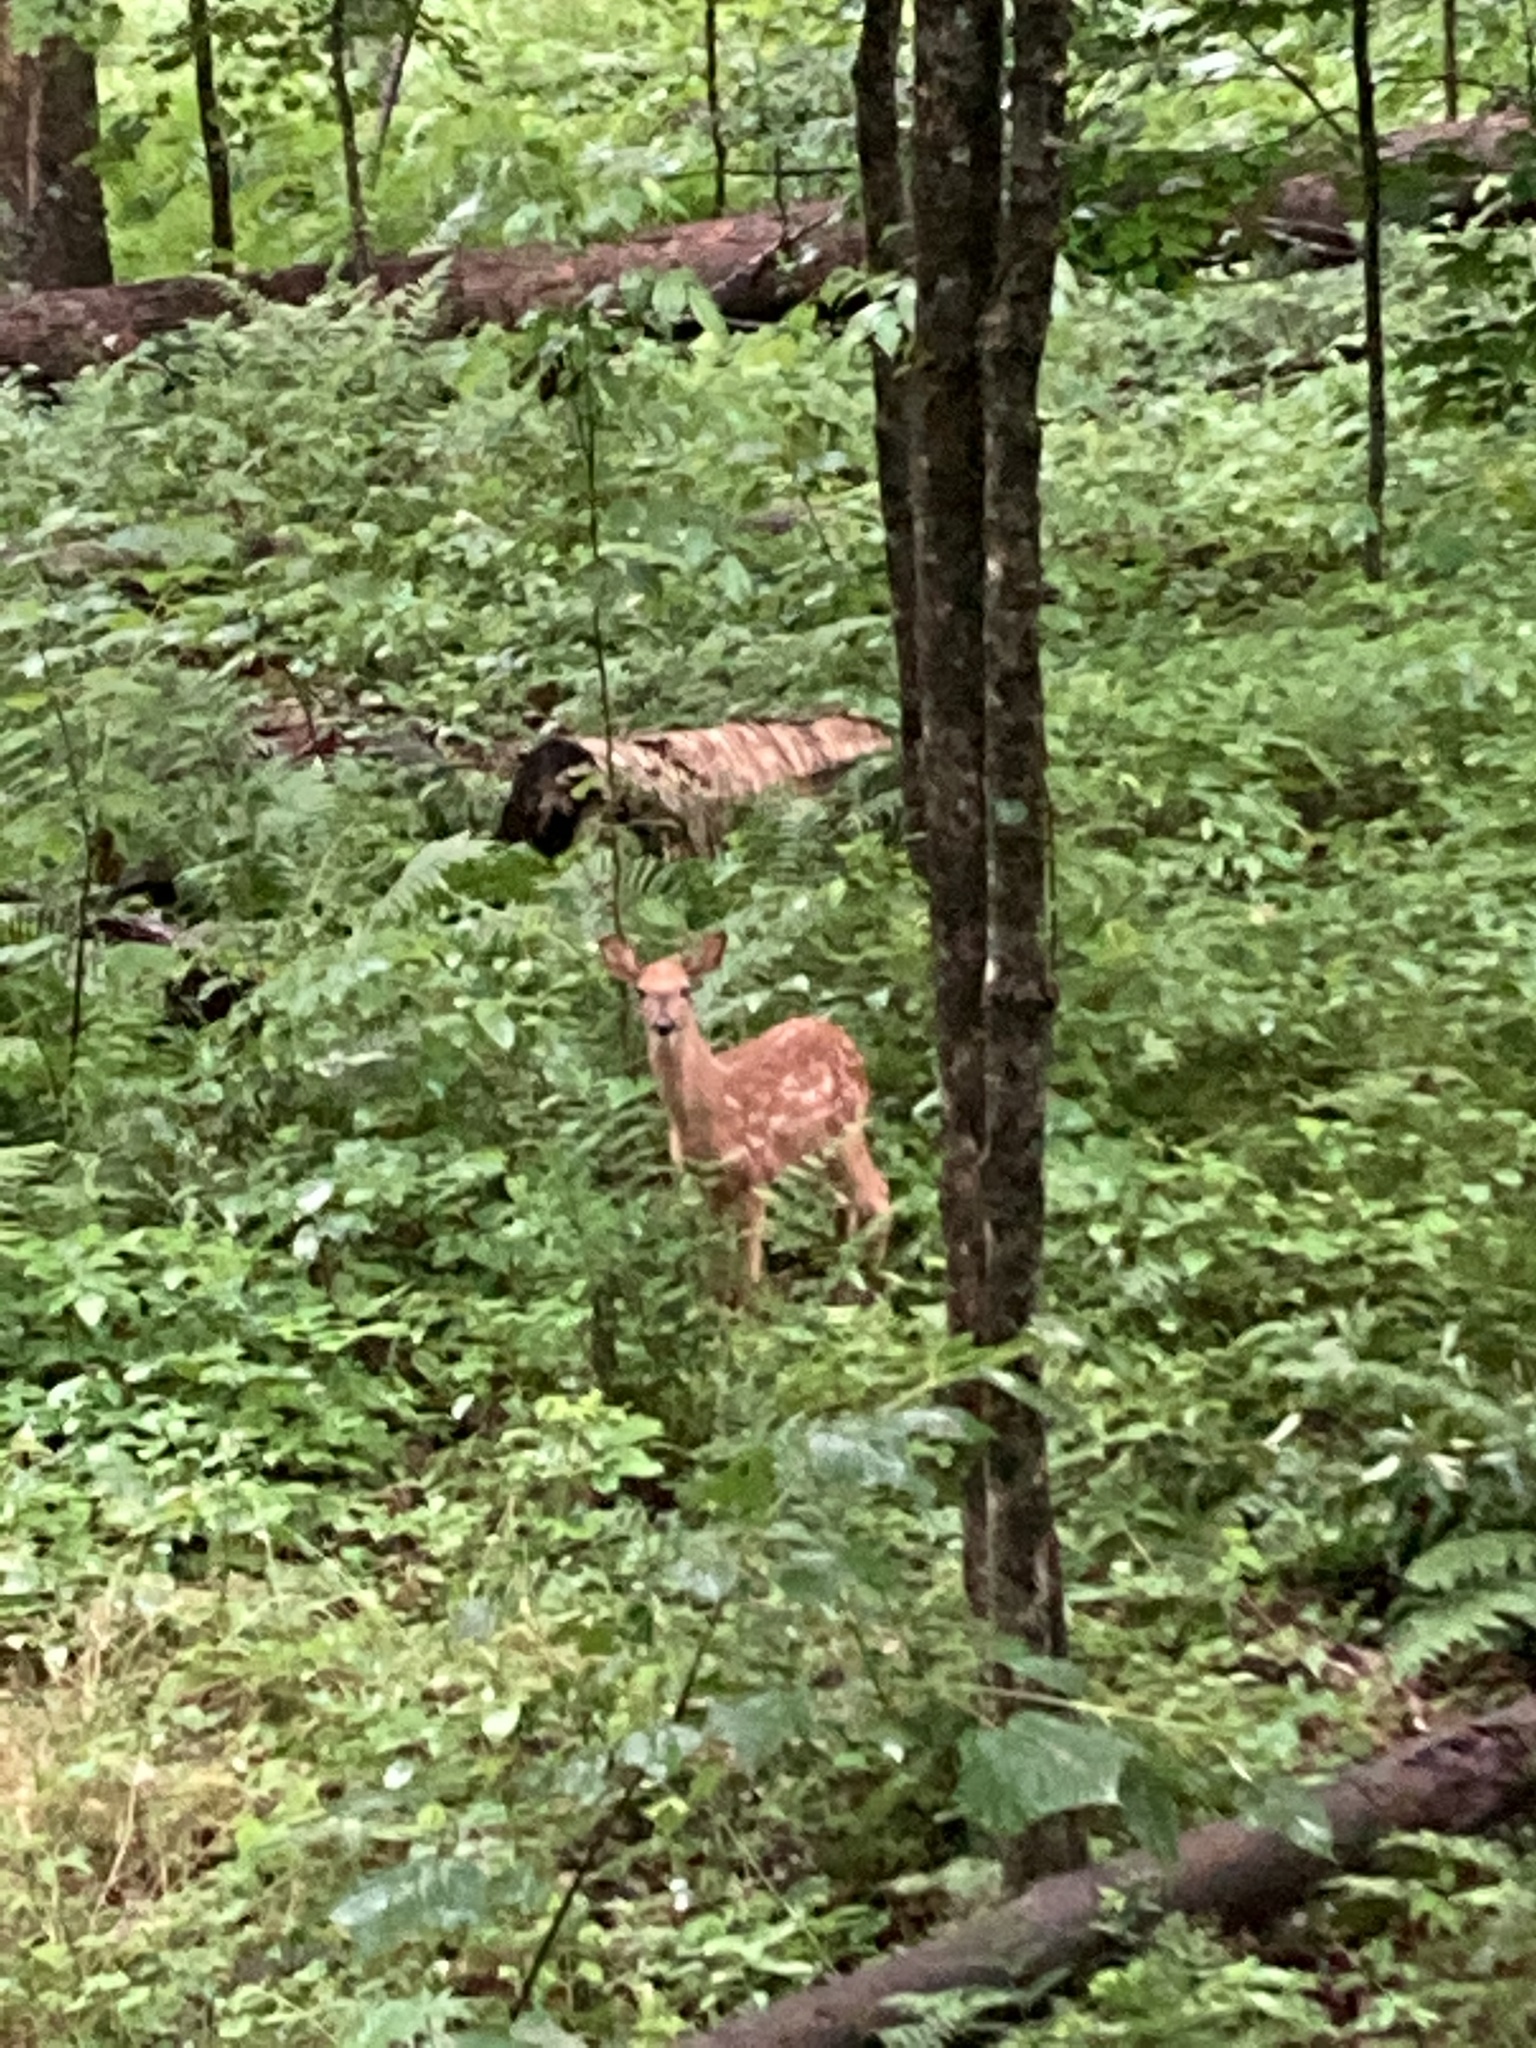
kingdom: Animalia
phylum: Chordata
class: Mammalia
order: Artiodactyla
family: Cervidae
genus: Odocoileus
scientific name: Odocoileus virginianus
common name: White-tailed deer
